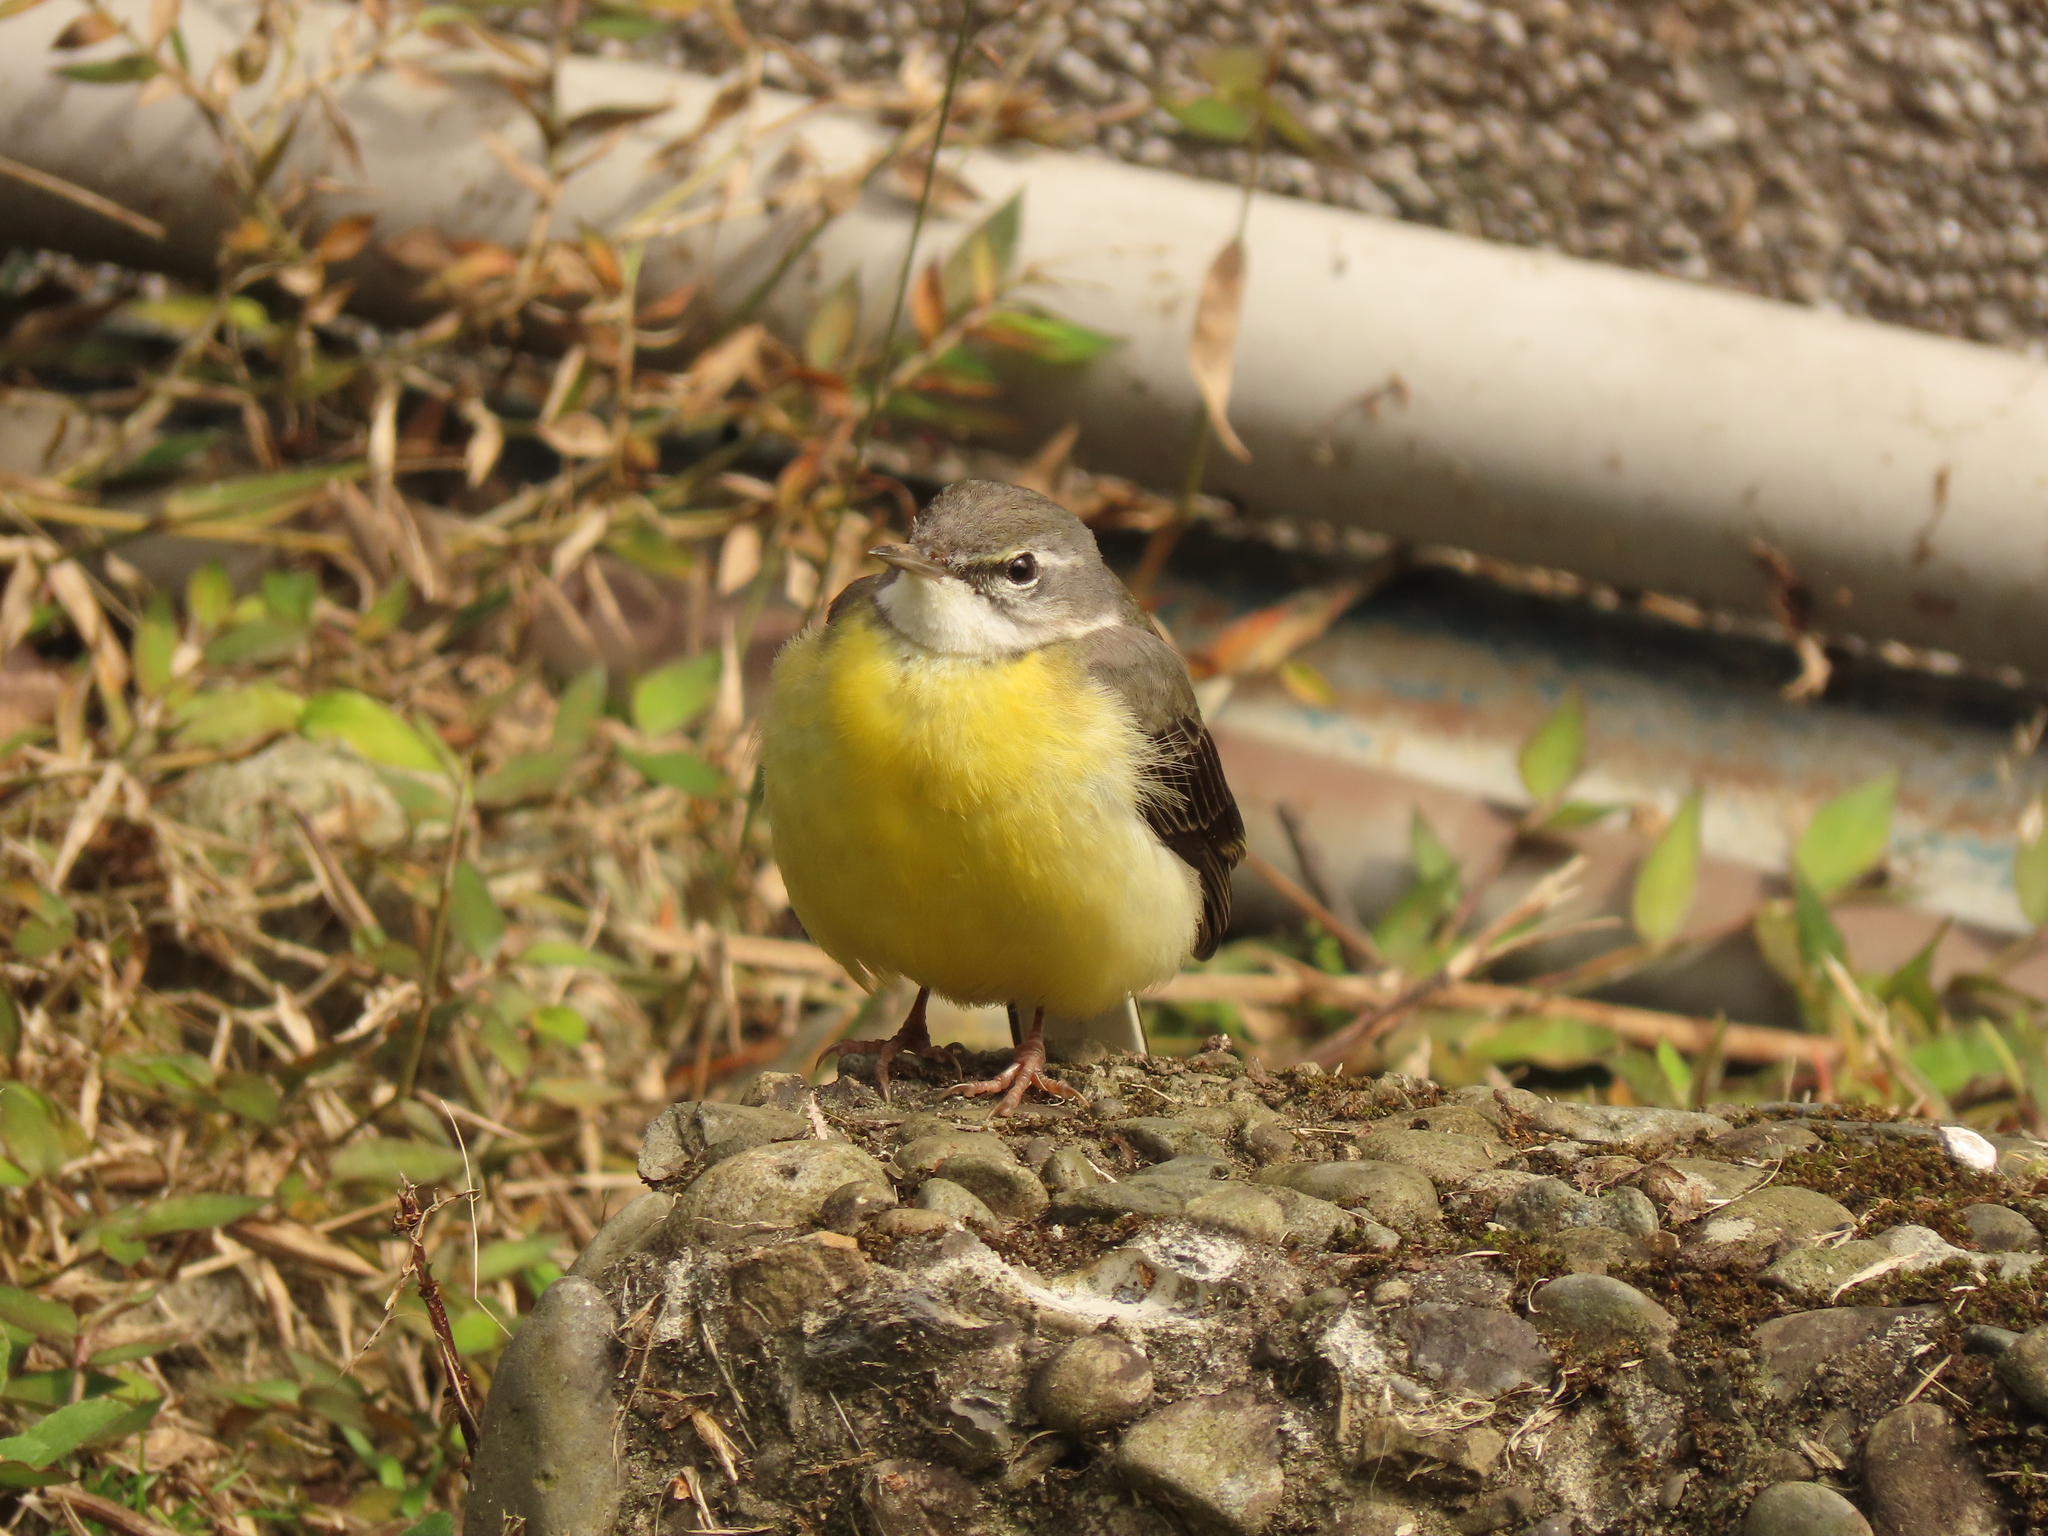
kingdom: Animalia
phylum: Chordata
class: Aves
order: Passeriformes
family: Motacillidae
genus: Motacilla
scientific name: Motacilla cinerea
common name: Grey wagtail
